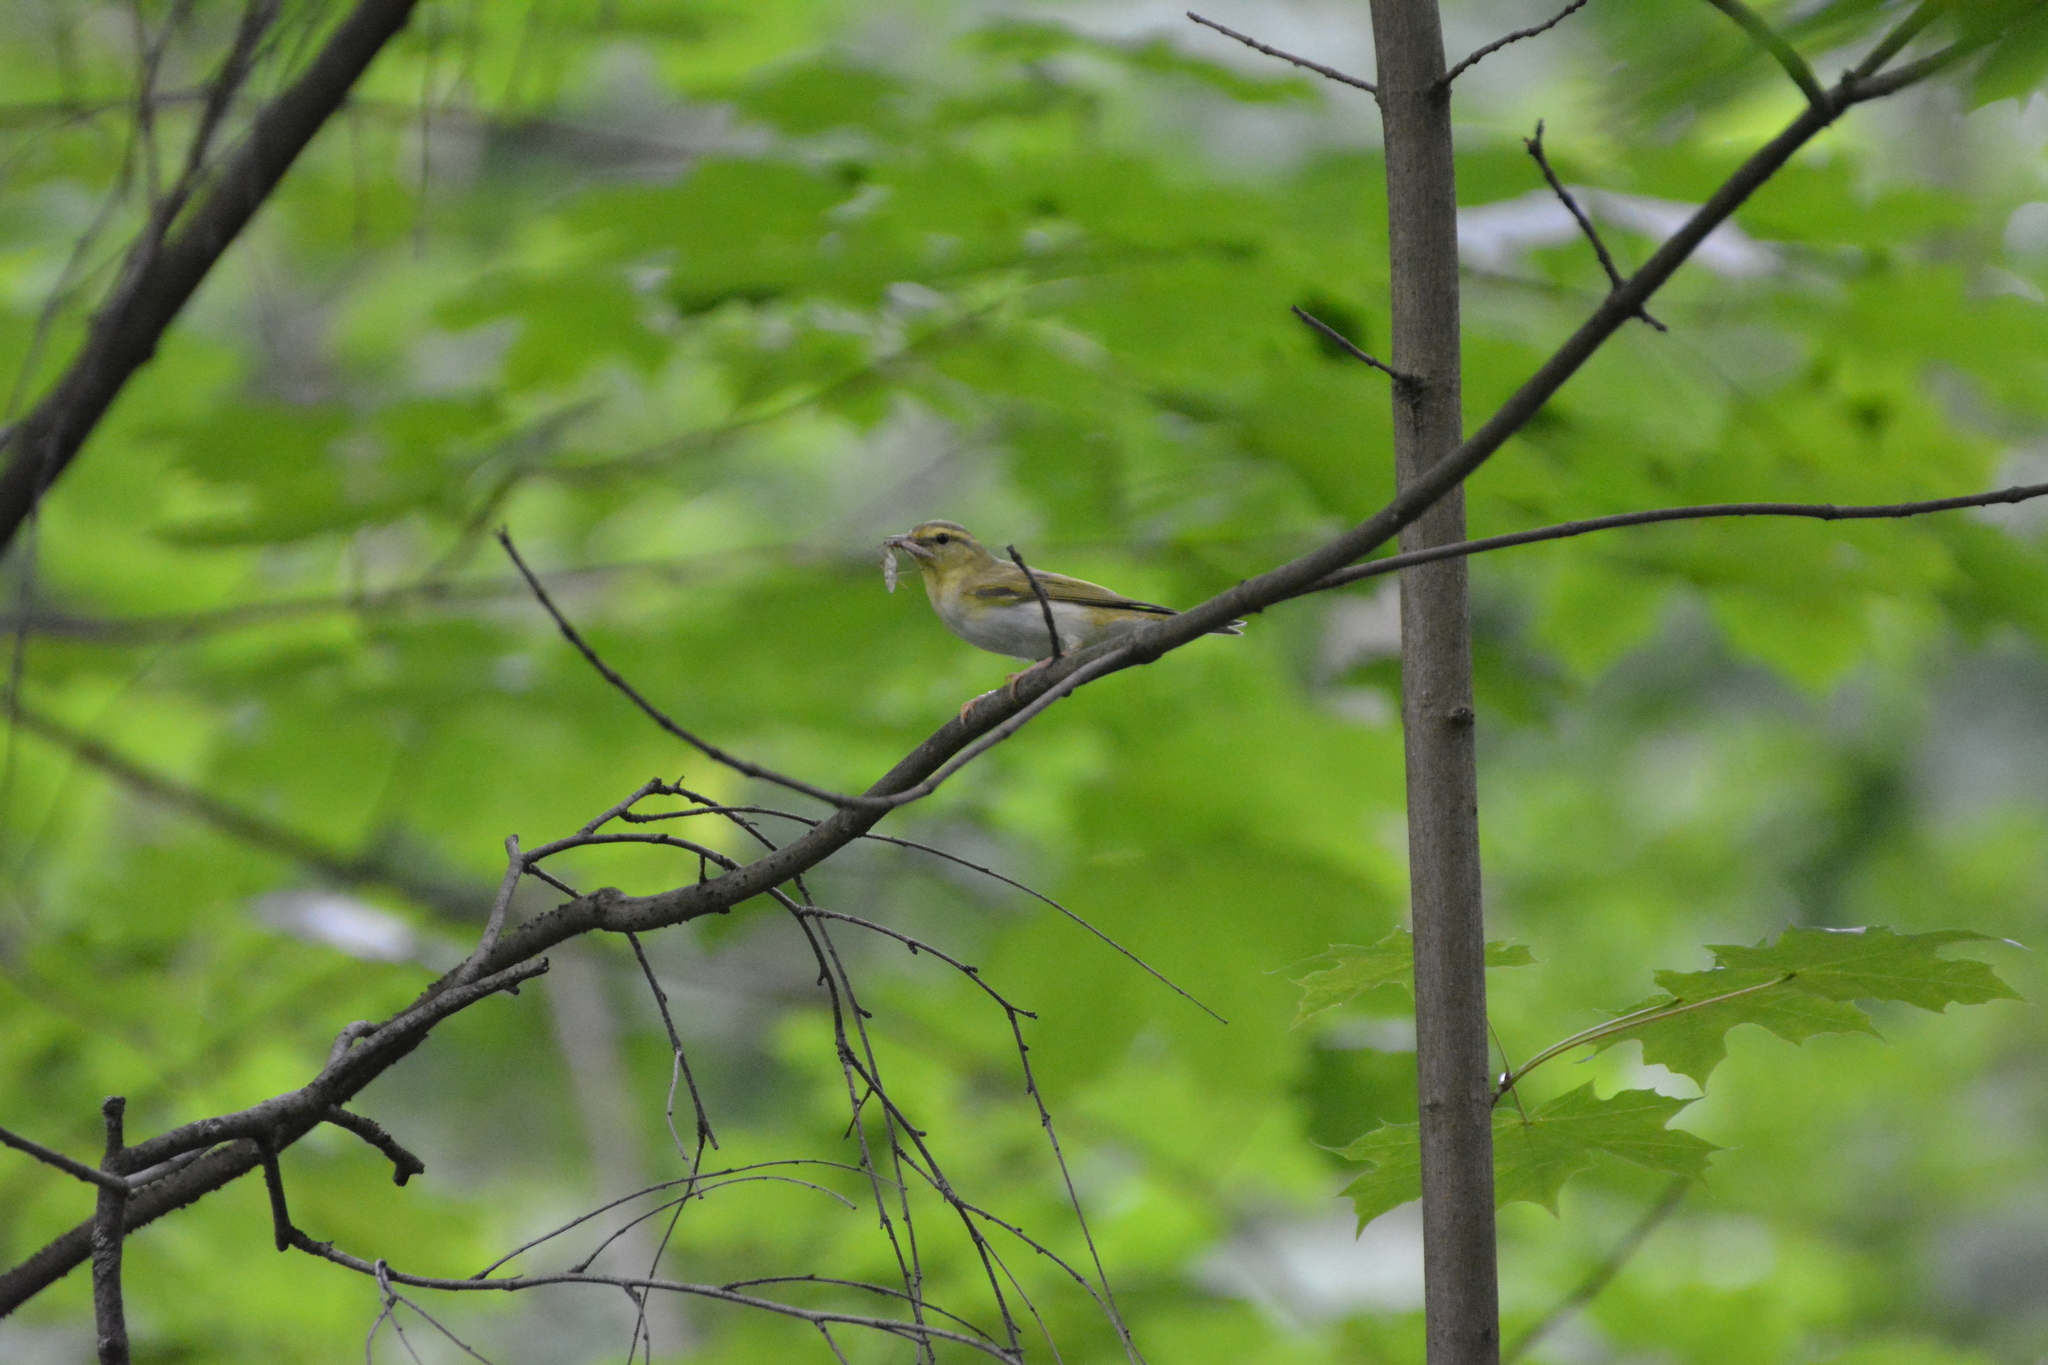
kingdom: Animalia
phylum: Chordata
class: Aves
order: Passeriformes
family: Phylloscopidae
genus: Phylloscopus
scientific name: Phylloscopus sibillatrix
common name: Wood warbler
